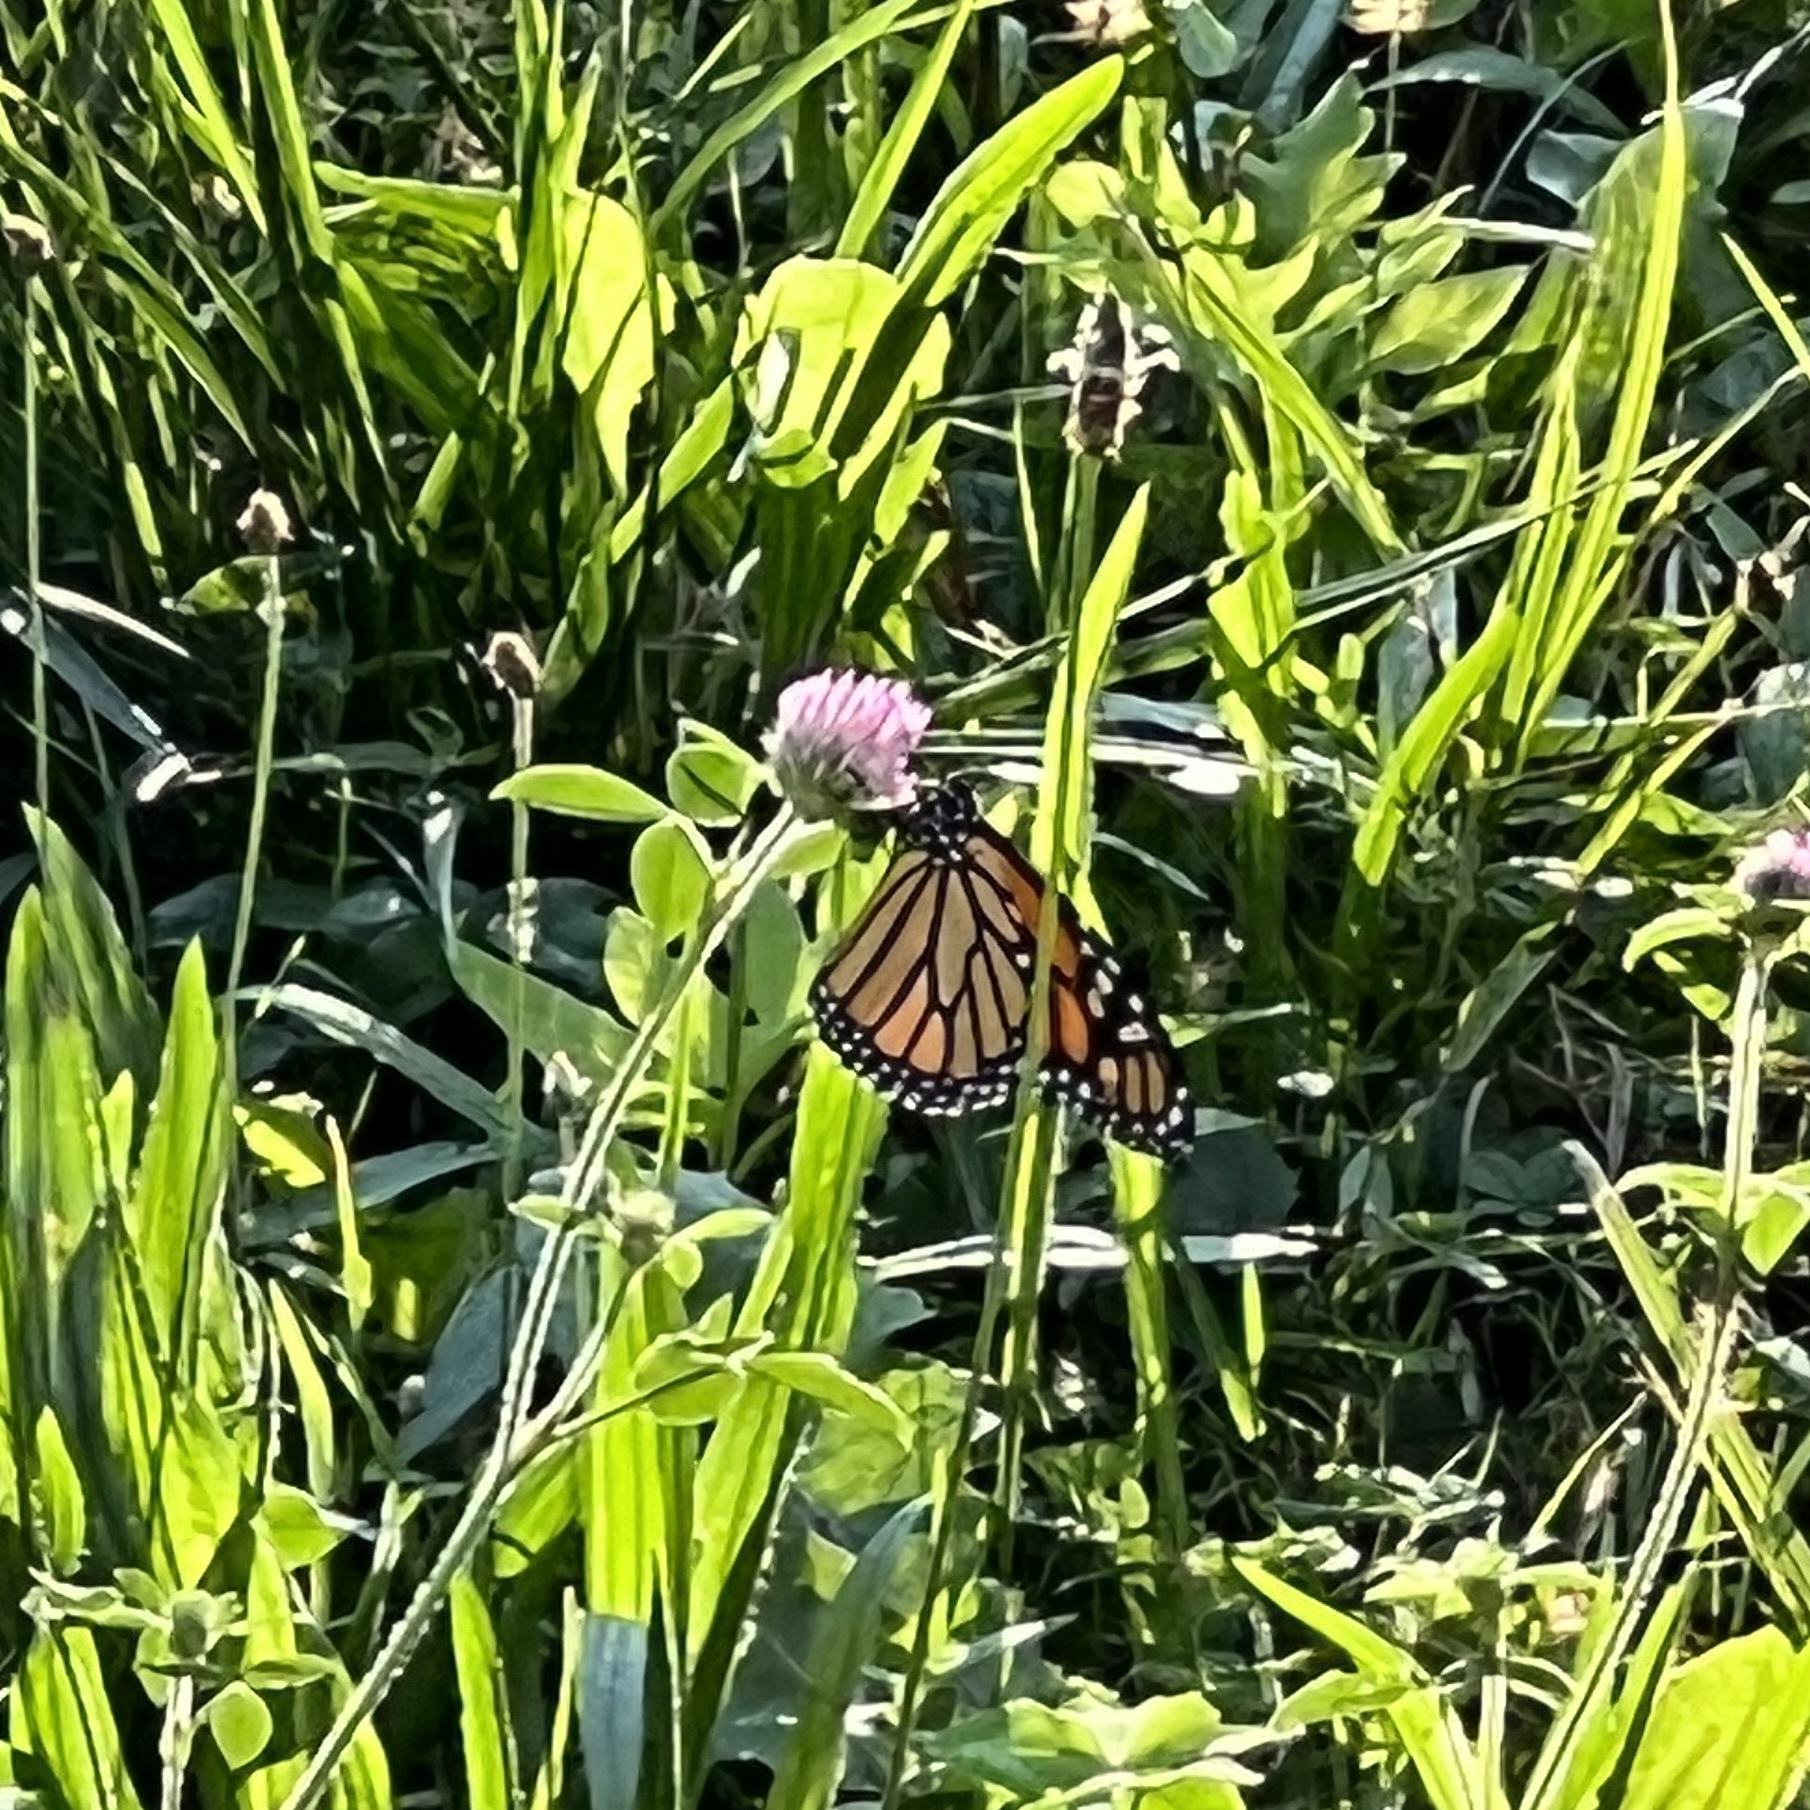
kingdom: Animalia
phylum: Arthropoda
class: Insecta
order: Lepidoptera
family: Nymphalidae
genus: Danaus
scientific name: Danaus plexippus
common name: Monarch
